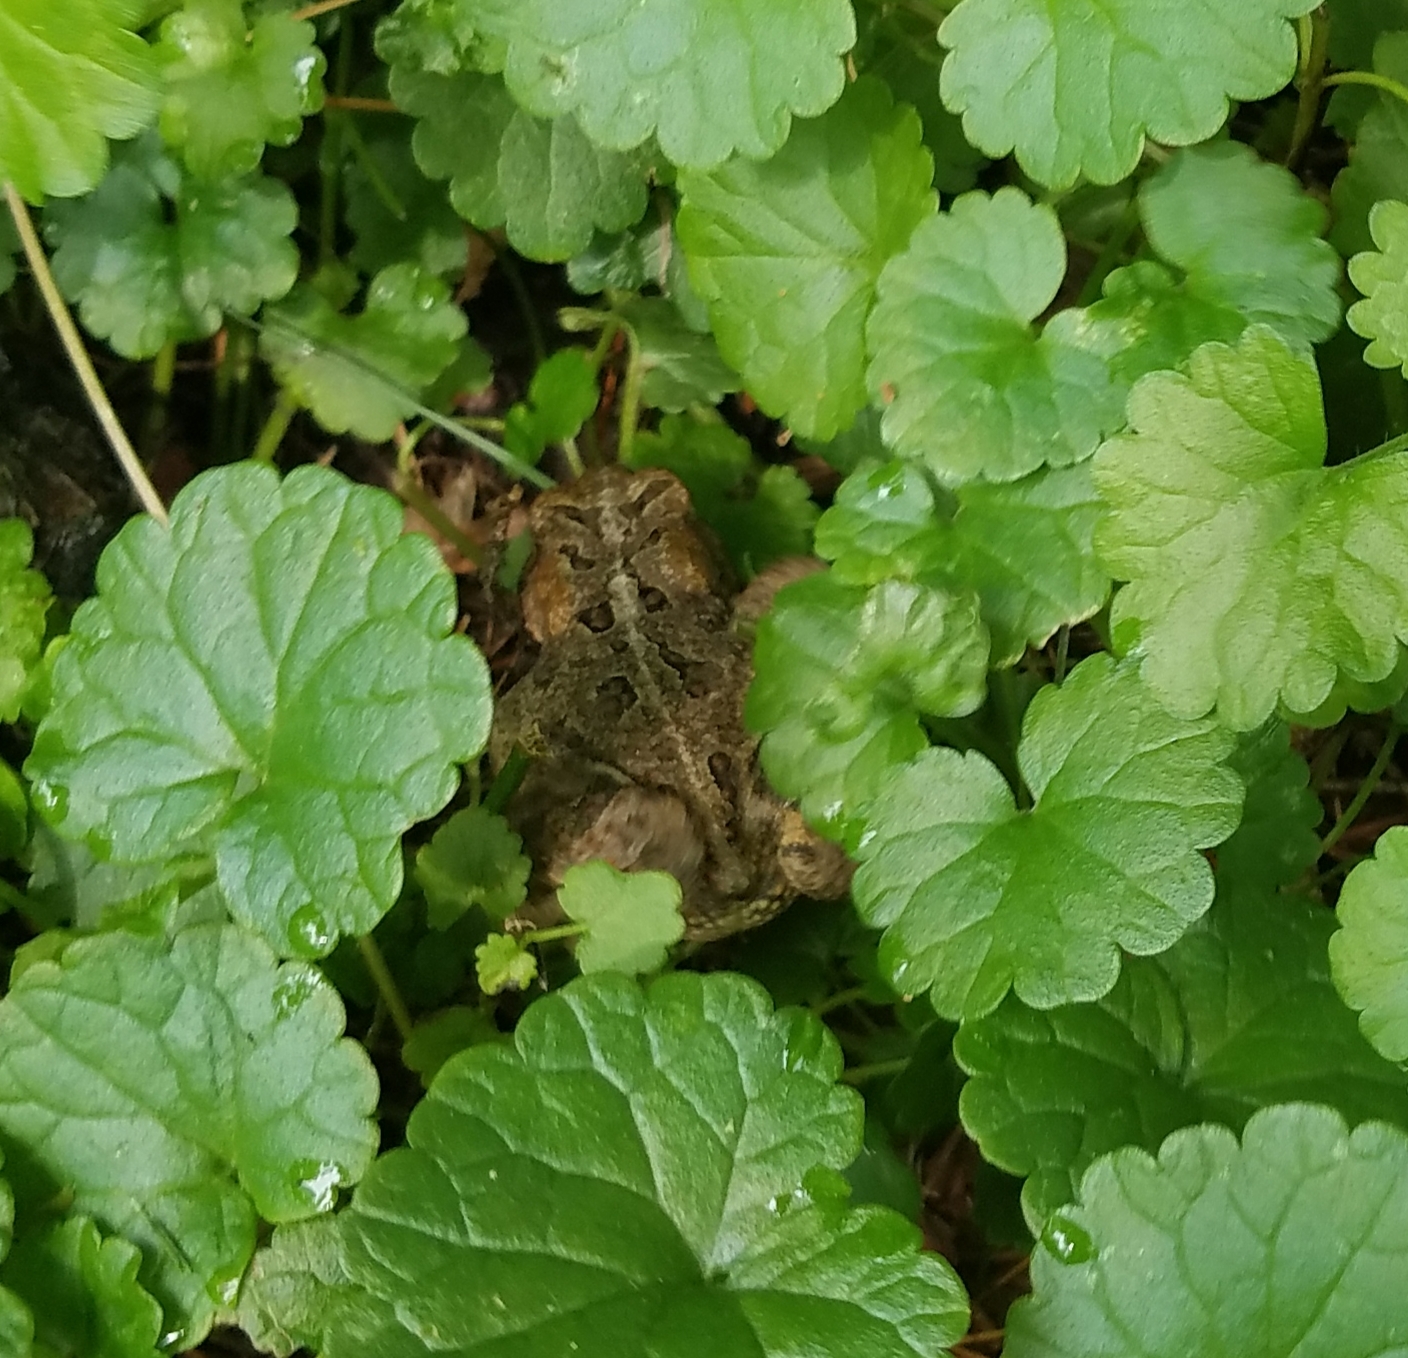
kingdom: Animalia
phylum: Chordata
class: Amphibia
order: Anura
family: Bufonidae
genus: Anaxyrus
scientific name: Anaxyrus americanus
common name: American toad
